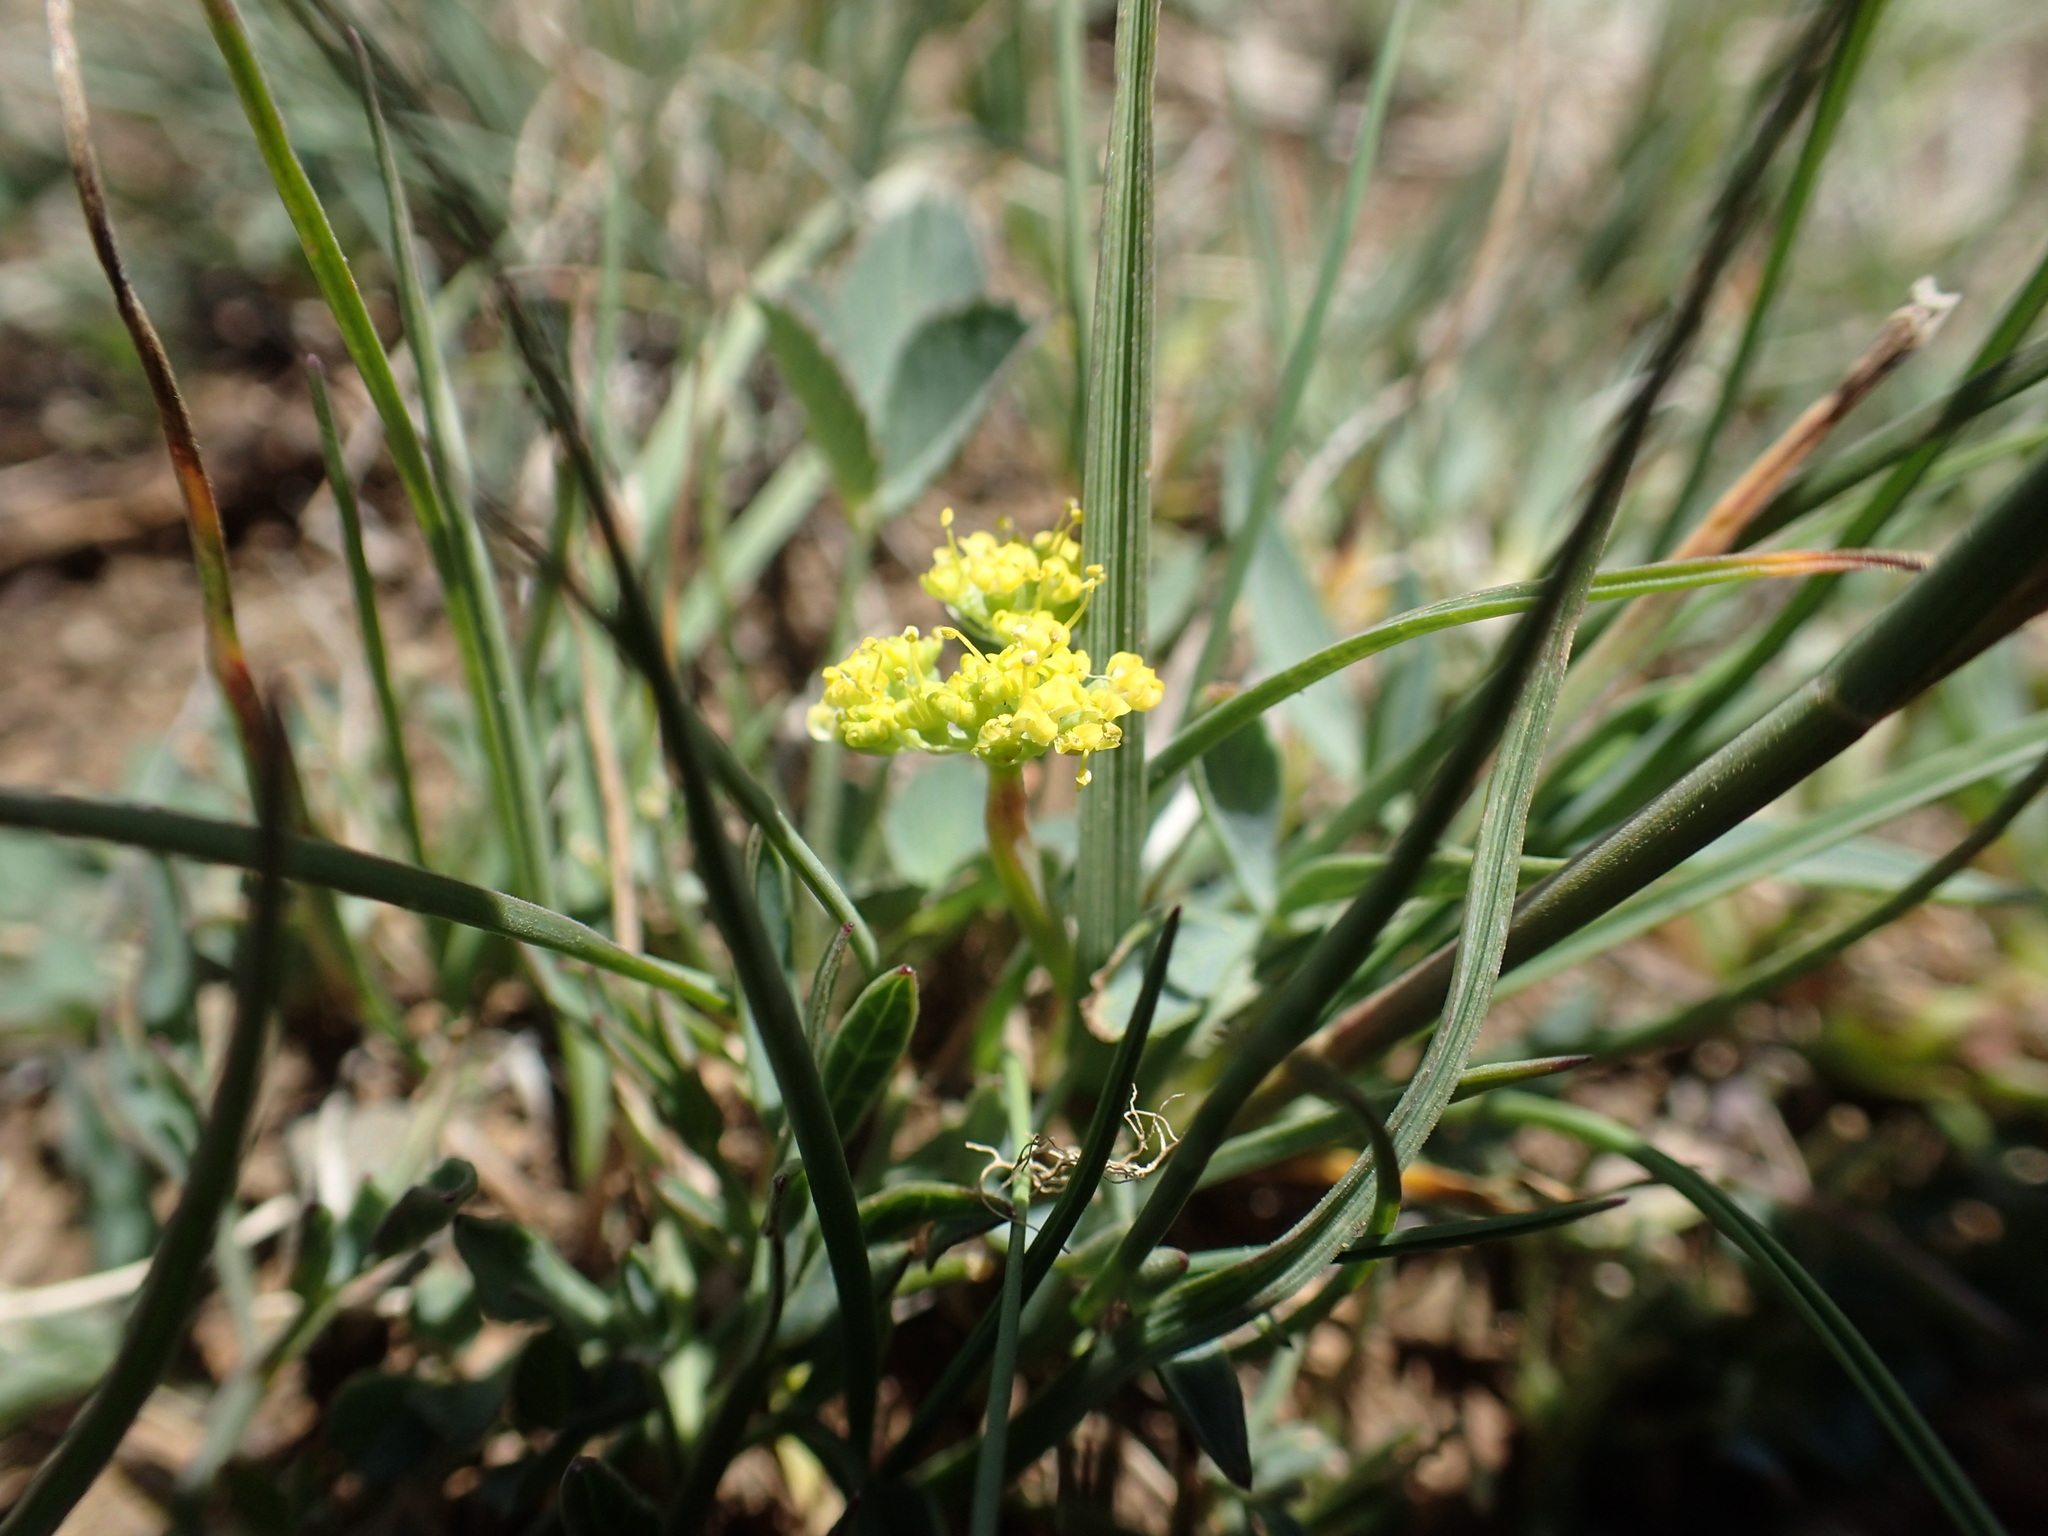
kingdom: Plantae
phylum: Tracheophyta
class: Magnoliopsida
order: Apiales
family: Apiaceae
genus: Lomatium
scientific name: Lomatium greenmanii
